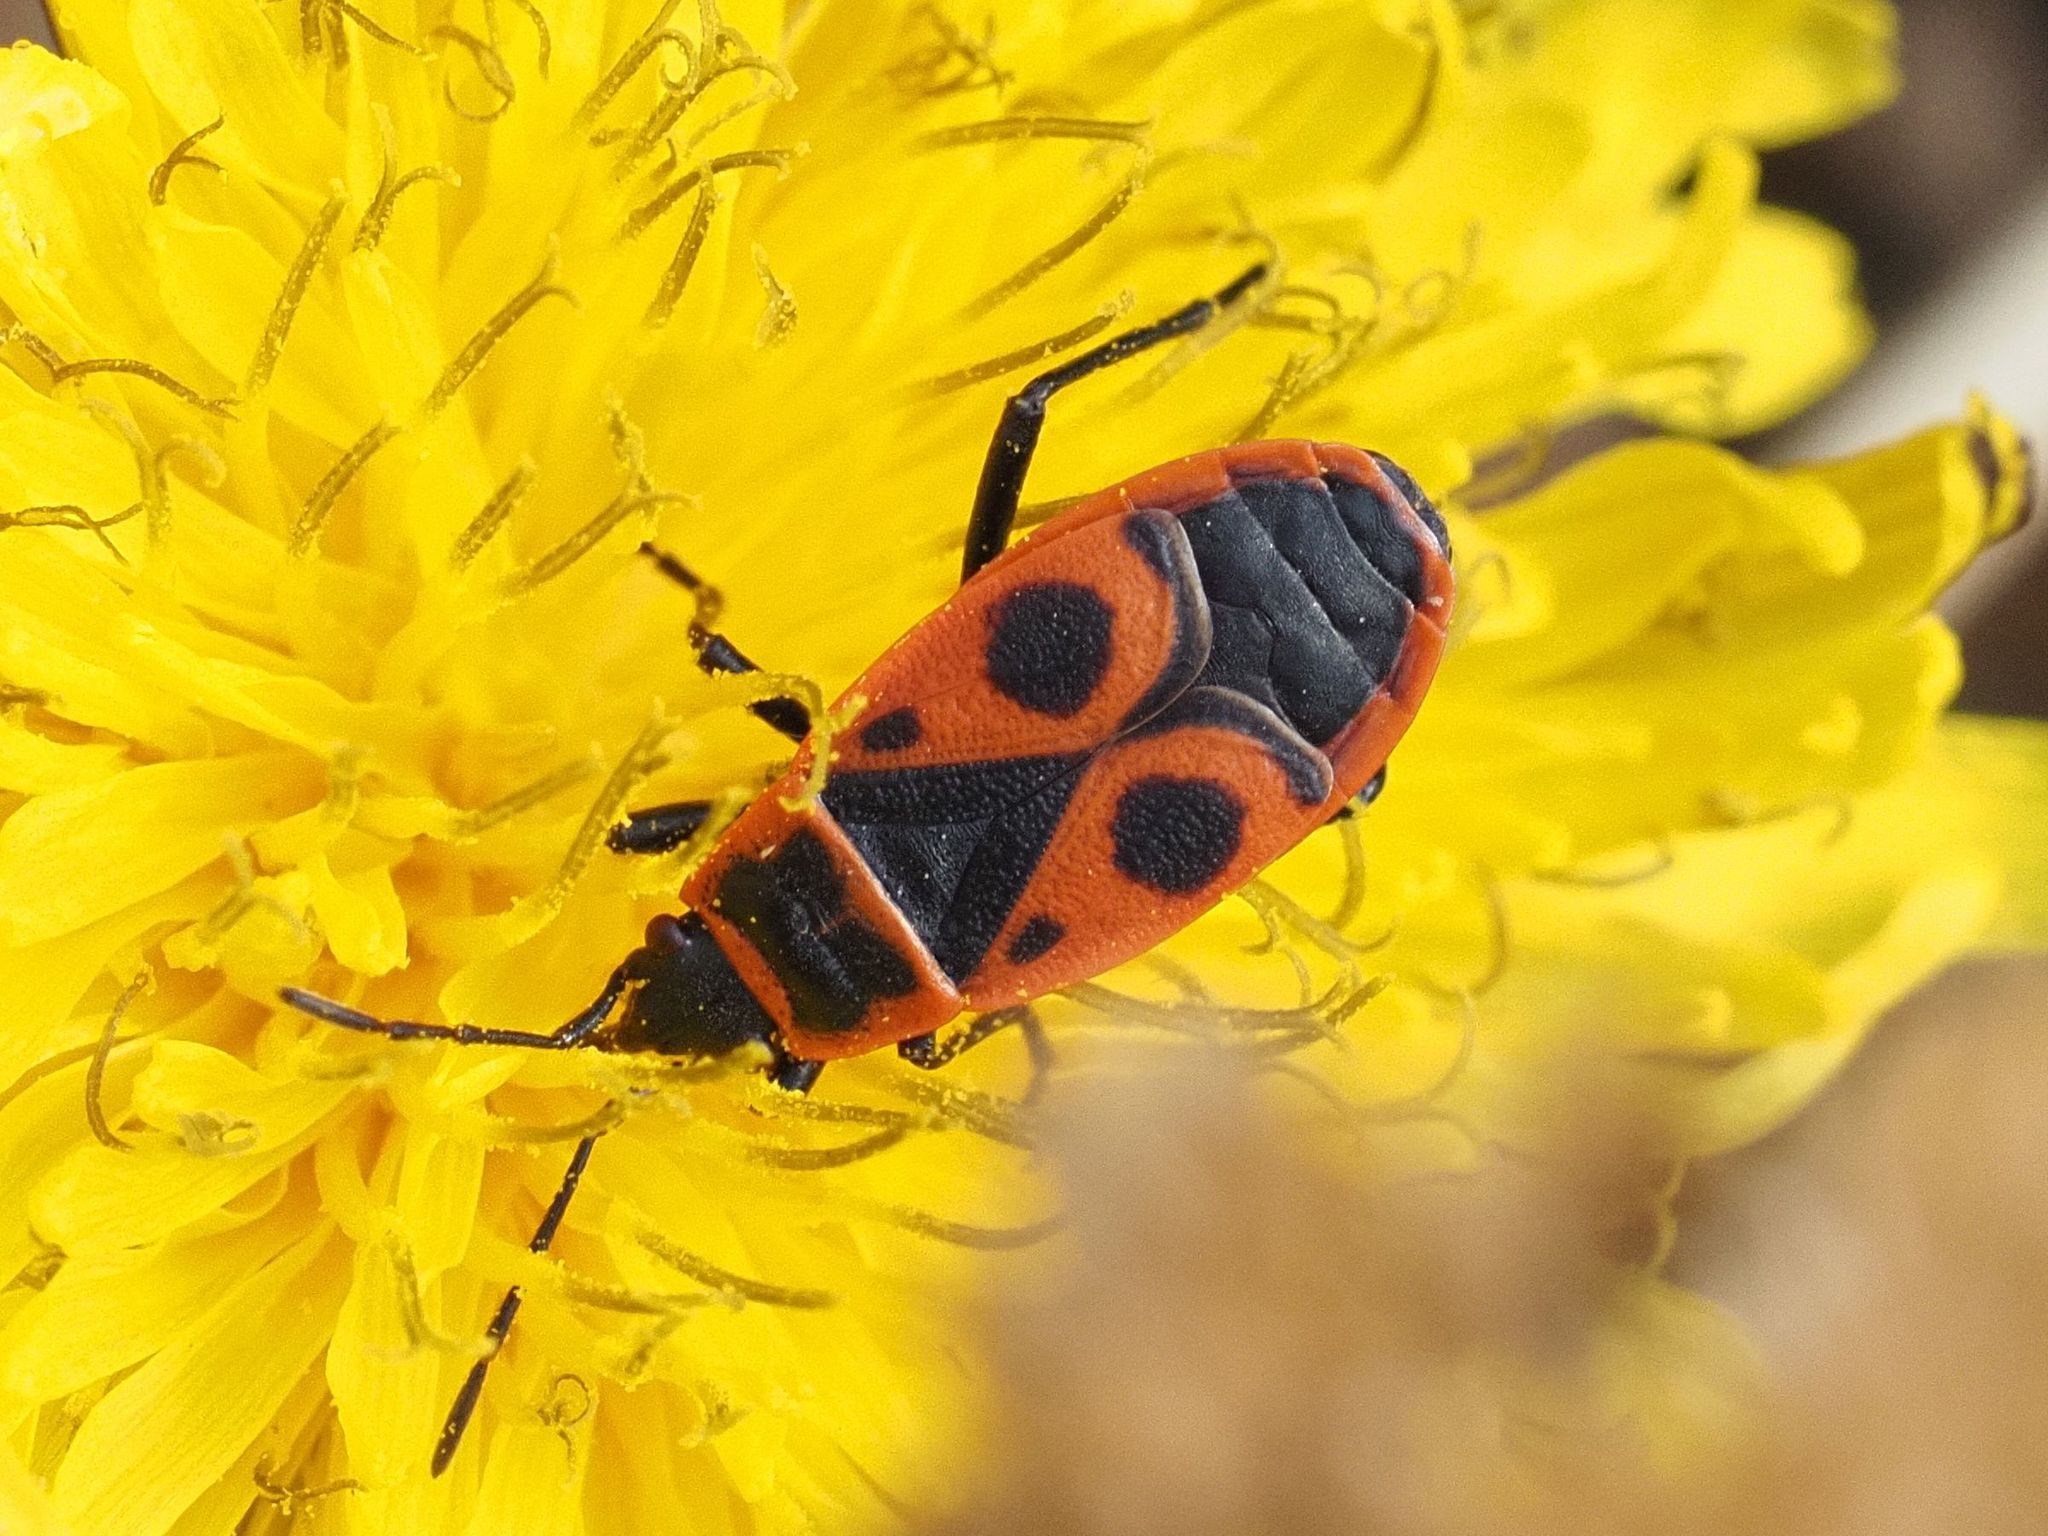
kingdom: Animalia
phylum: Arthropoda
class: Insecta
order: Hemiptera
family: Pyrrhocoridae
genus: Pyrrhocoris
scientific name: Pyrrhocoris apterus
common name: Firebug
